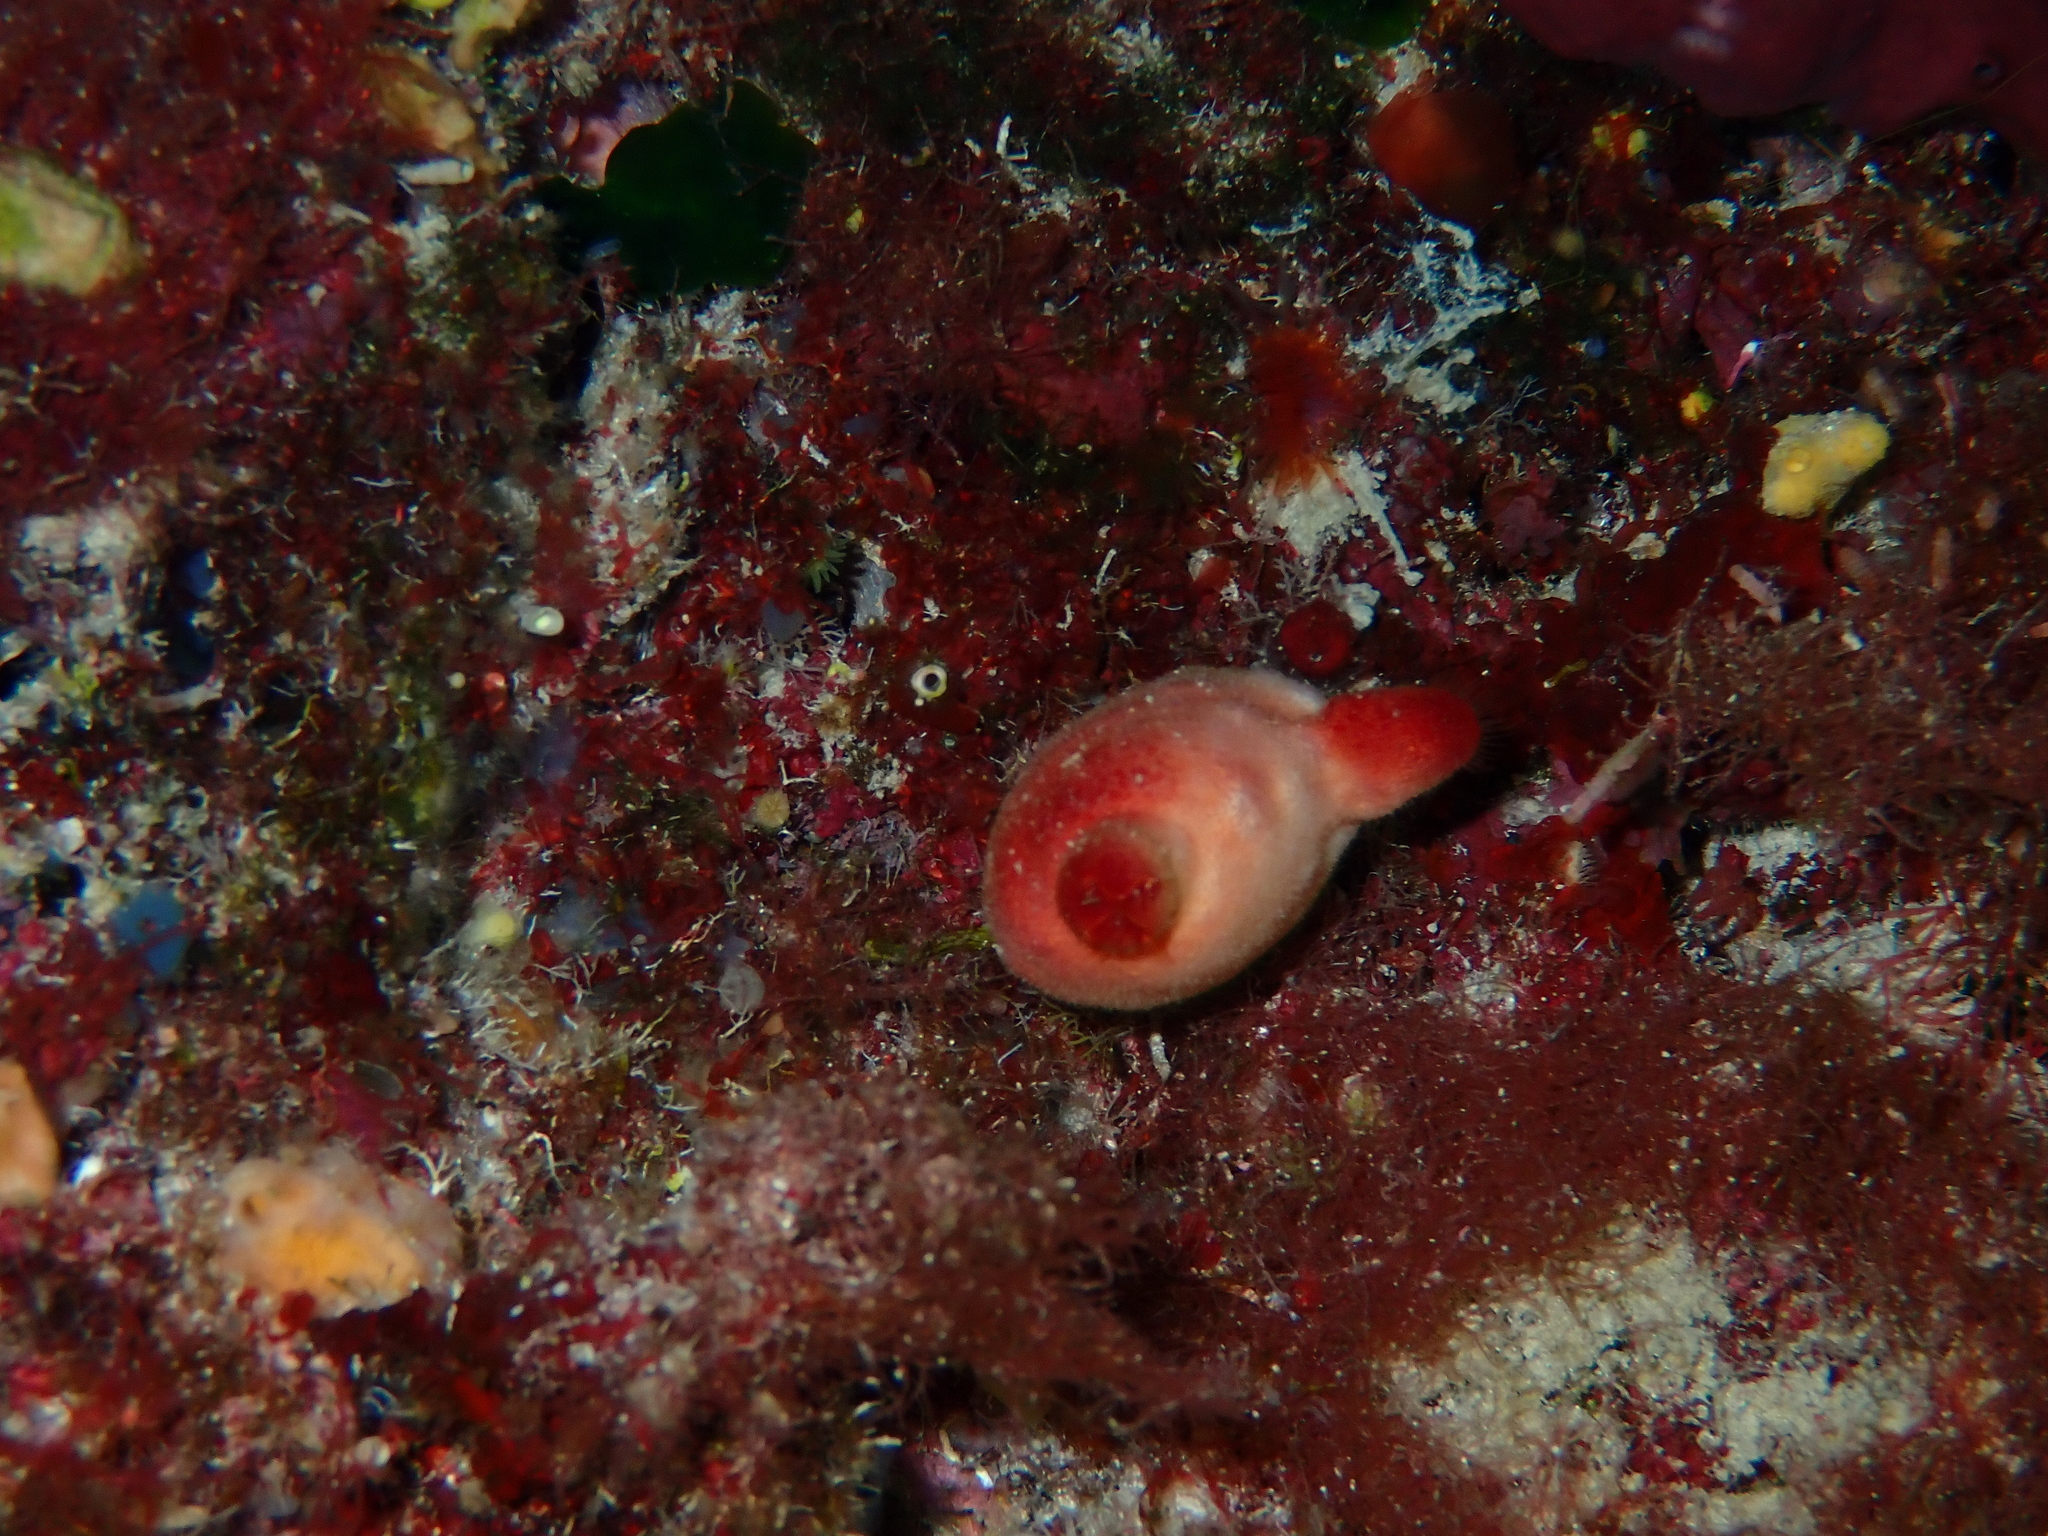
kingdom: Animalia
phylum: Chordata
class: Ascidiacea
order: Stolidobranchia
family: Pyuridae
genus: Halocynthia
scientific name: Halocynthia papillosa
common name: Red sea-squirt
